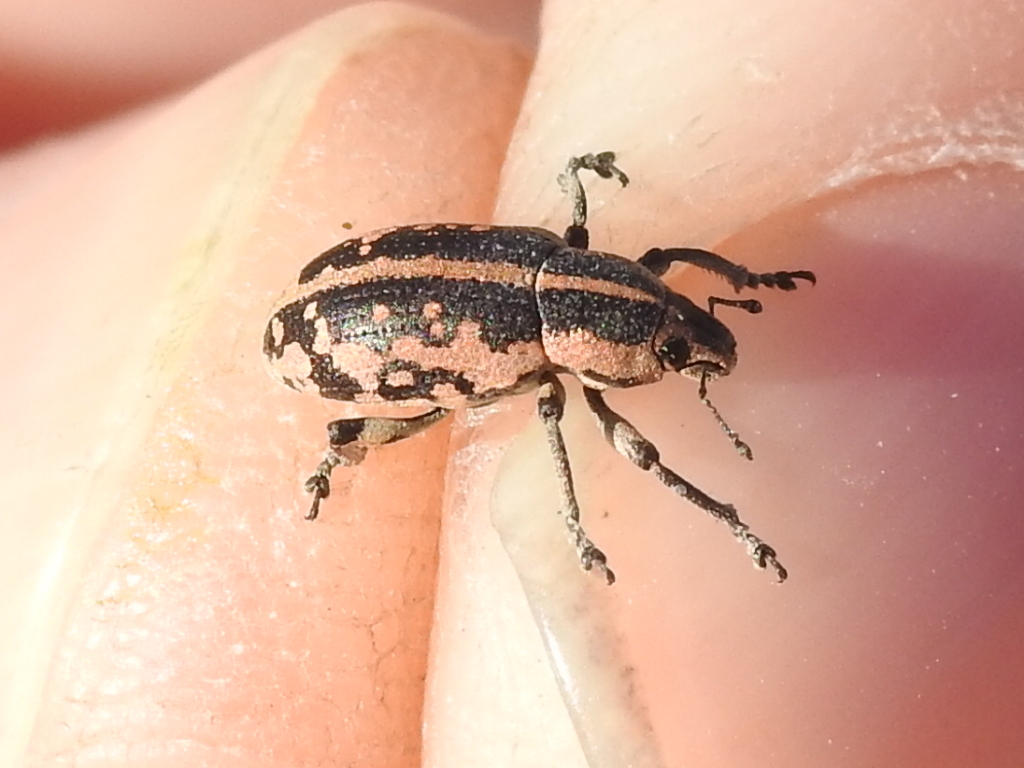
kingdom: Animalia
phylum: Arthropoda
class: Insecta
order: Coleoptera
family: Curculionidae
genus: Eudiagogus
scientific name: Eudiagogus rosenschoeldi
